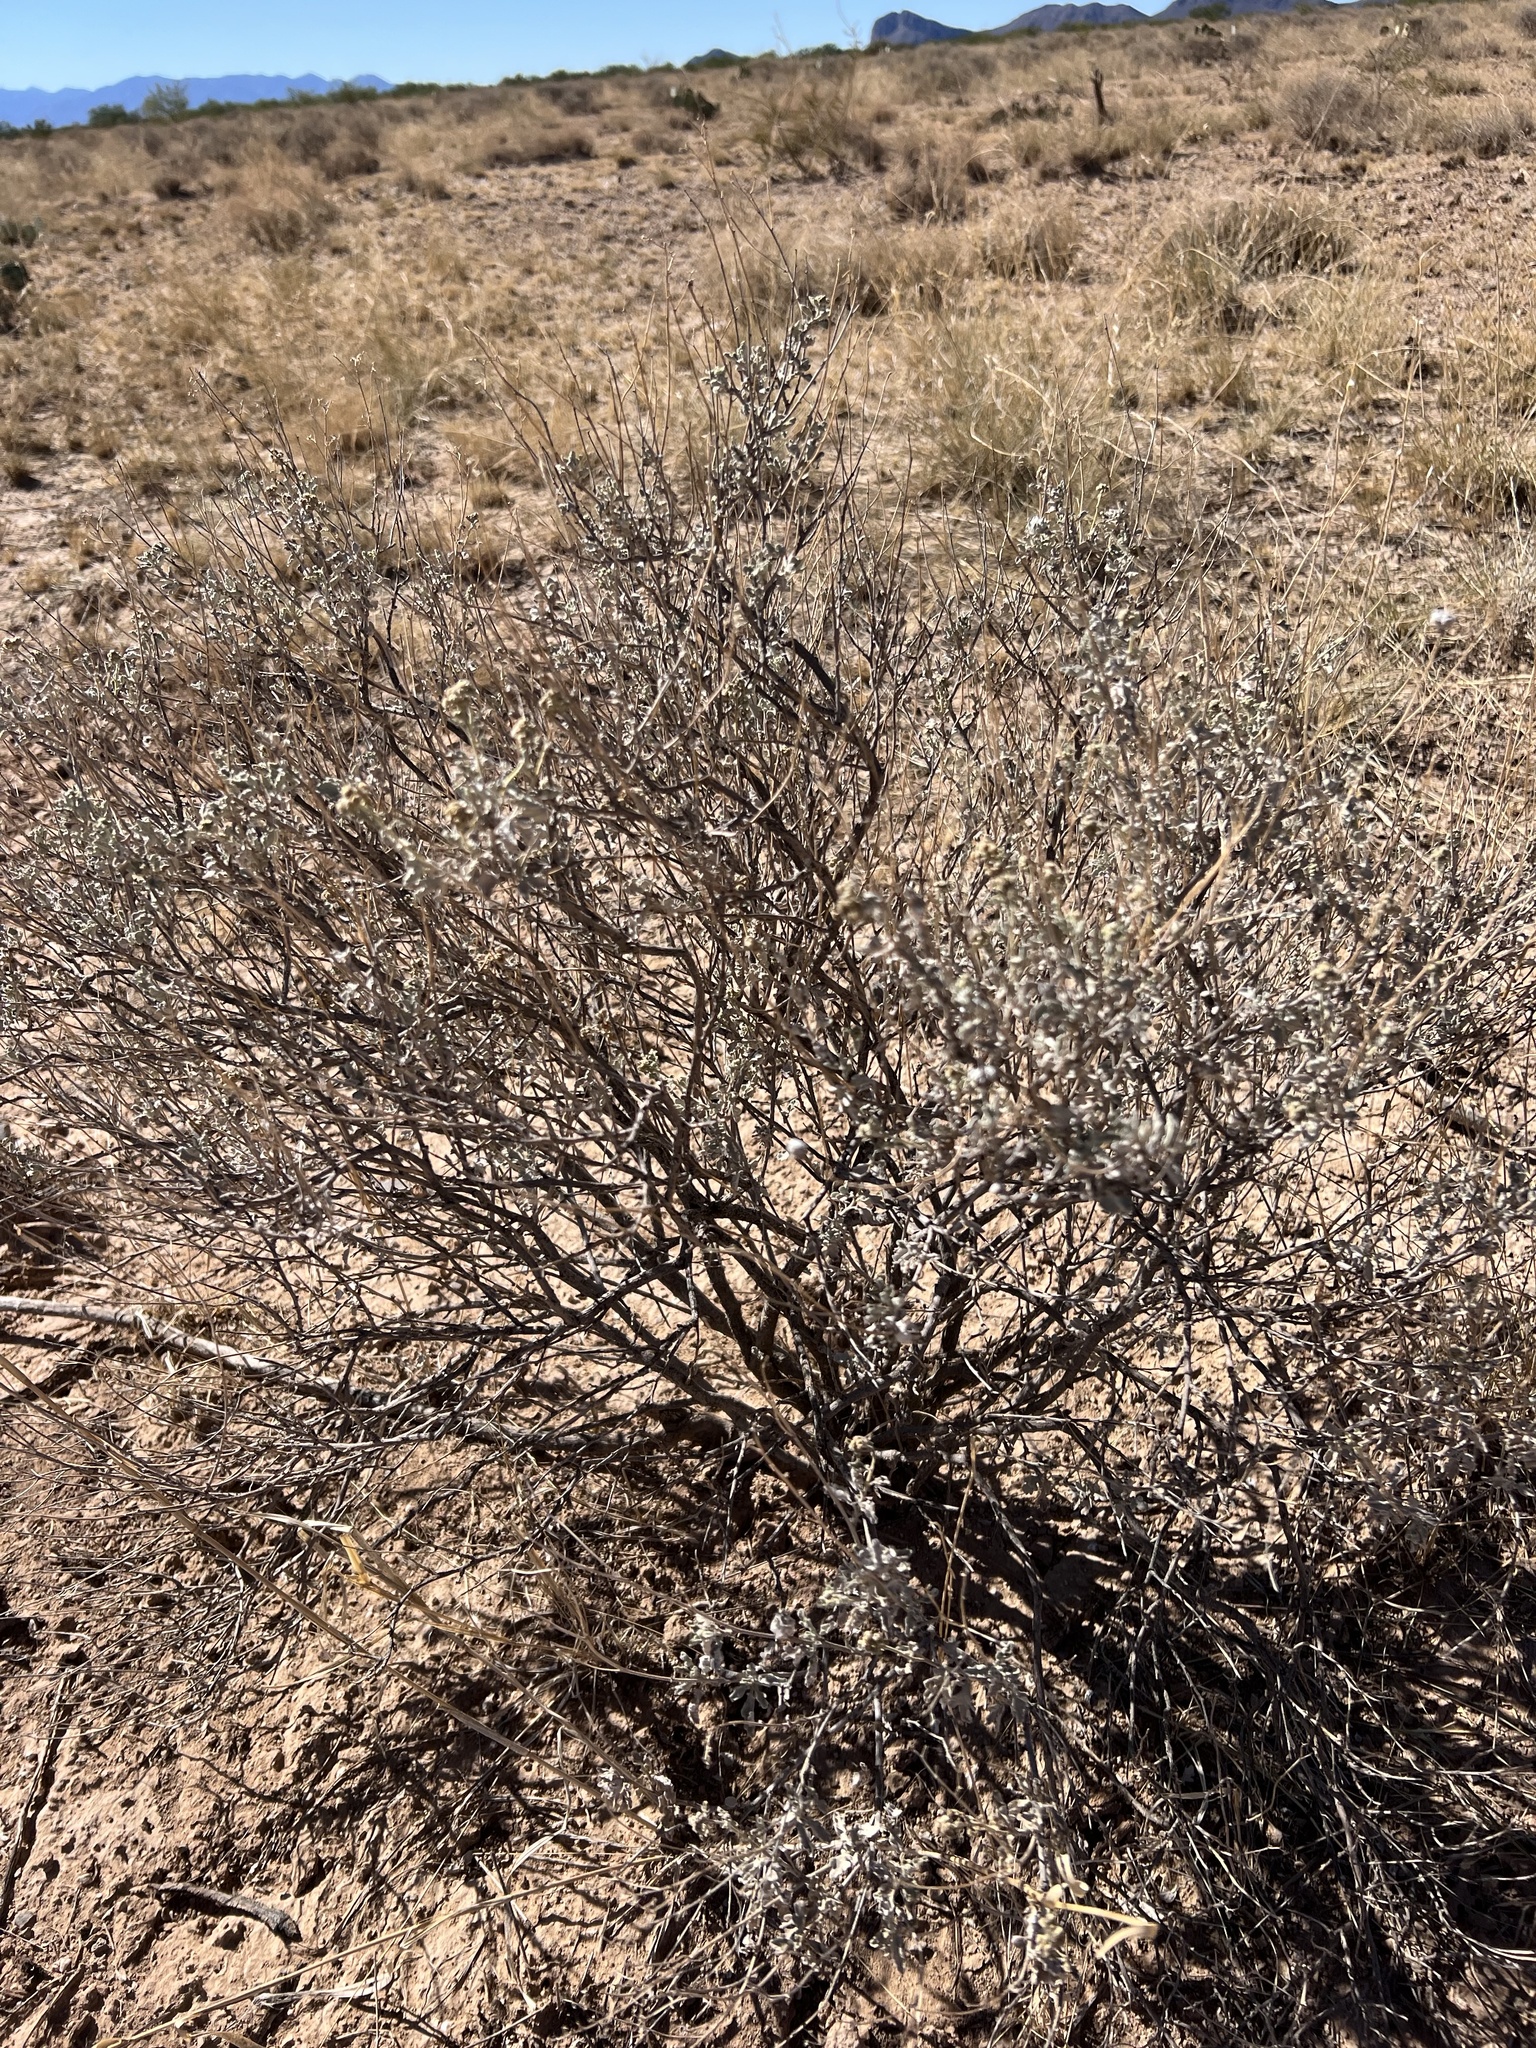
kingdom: Plantae
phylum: Tracheophyta
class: Magnoliopsida
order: Asterales
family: Asteraceae
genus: Parthenium
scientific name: Parthenium incanum
